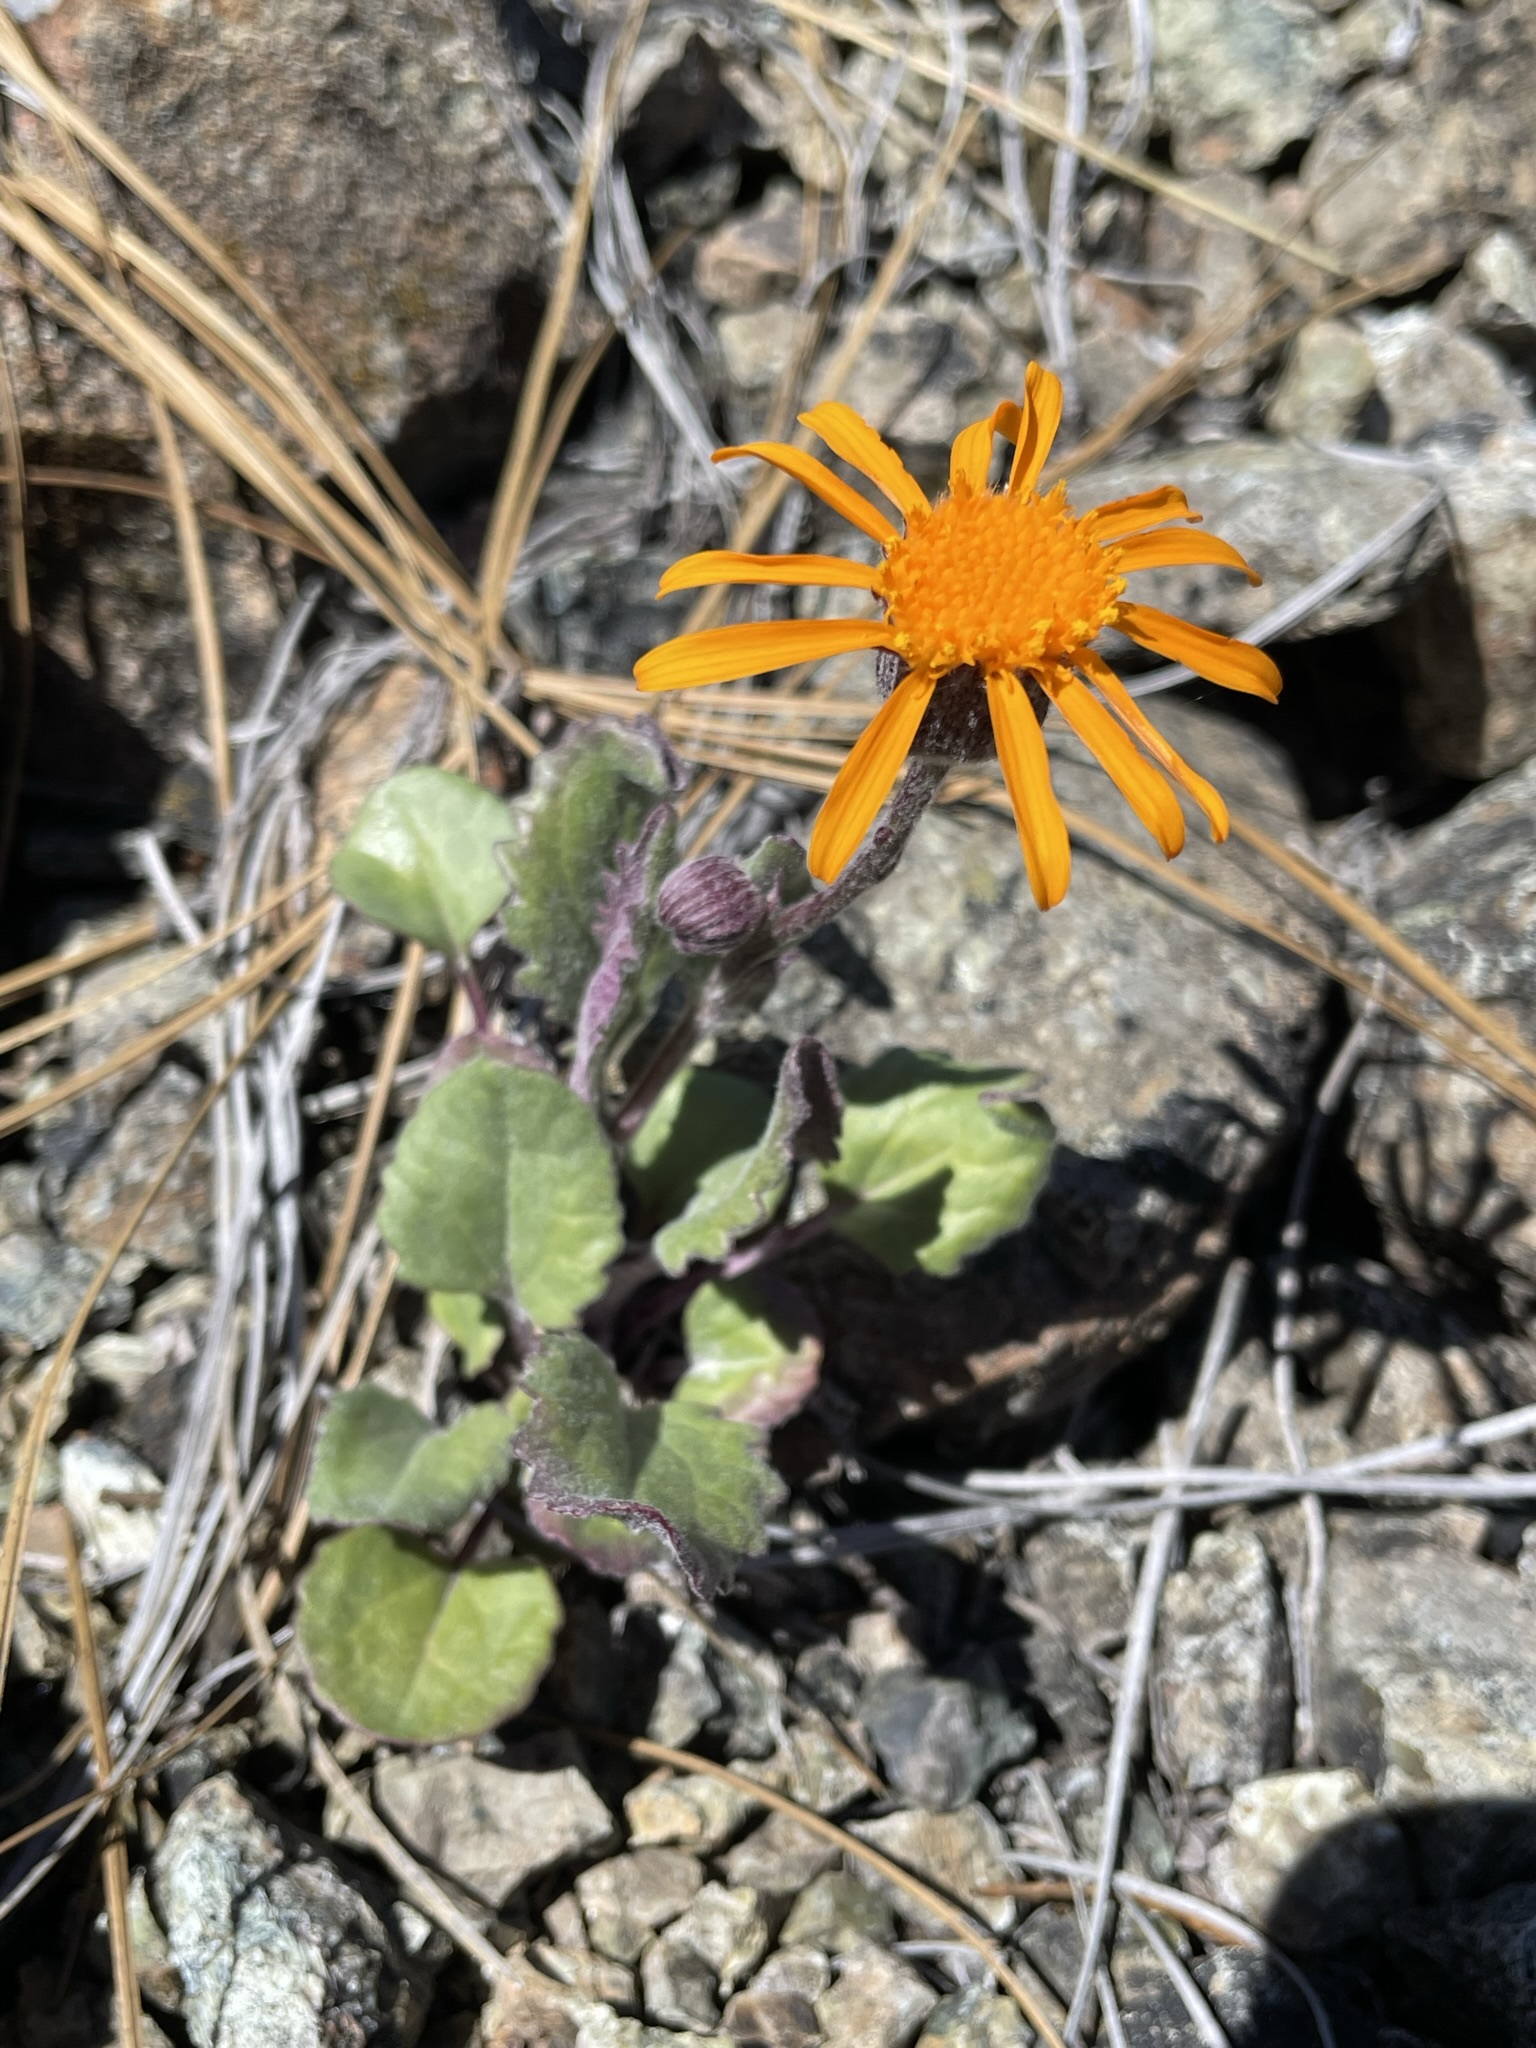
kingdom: Plantae
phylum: Tracheophyta
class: Magnoliopsida
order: Asterales
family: Asteraceae
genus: Packera
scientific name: Packera greenei
